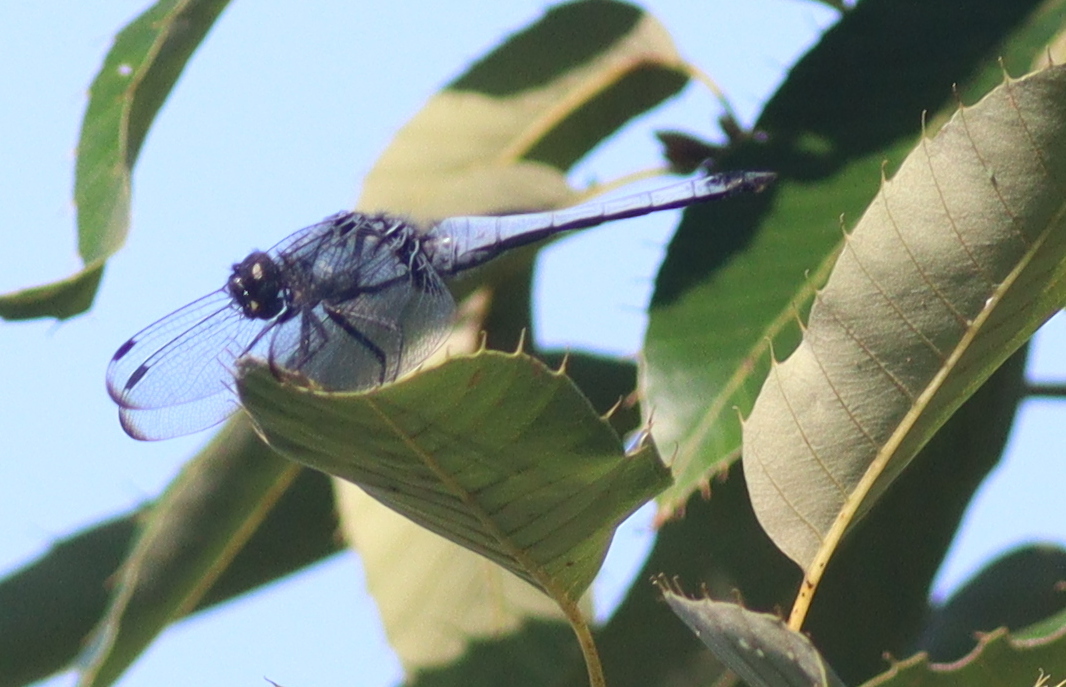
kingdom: Animalia
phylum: Arthropoda
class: Insecta
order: Odonata
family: Libellulidae
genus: Orthetrum
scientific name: Orthetrum melania
